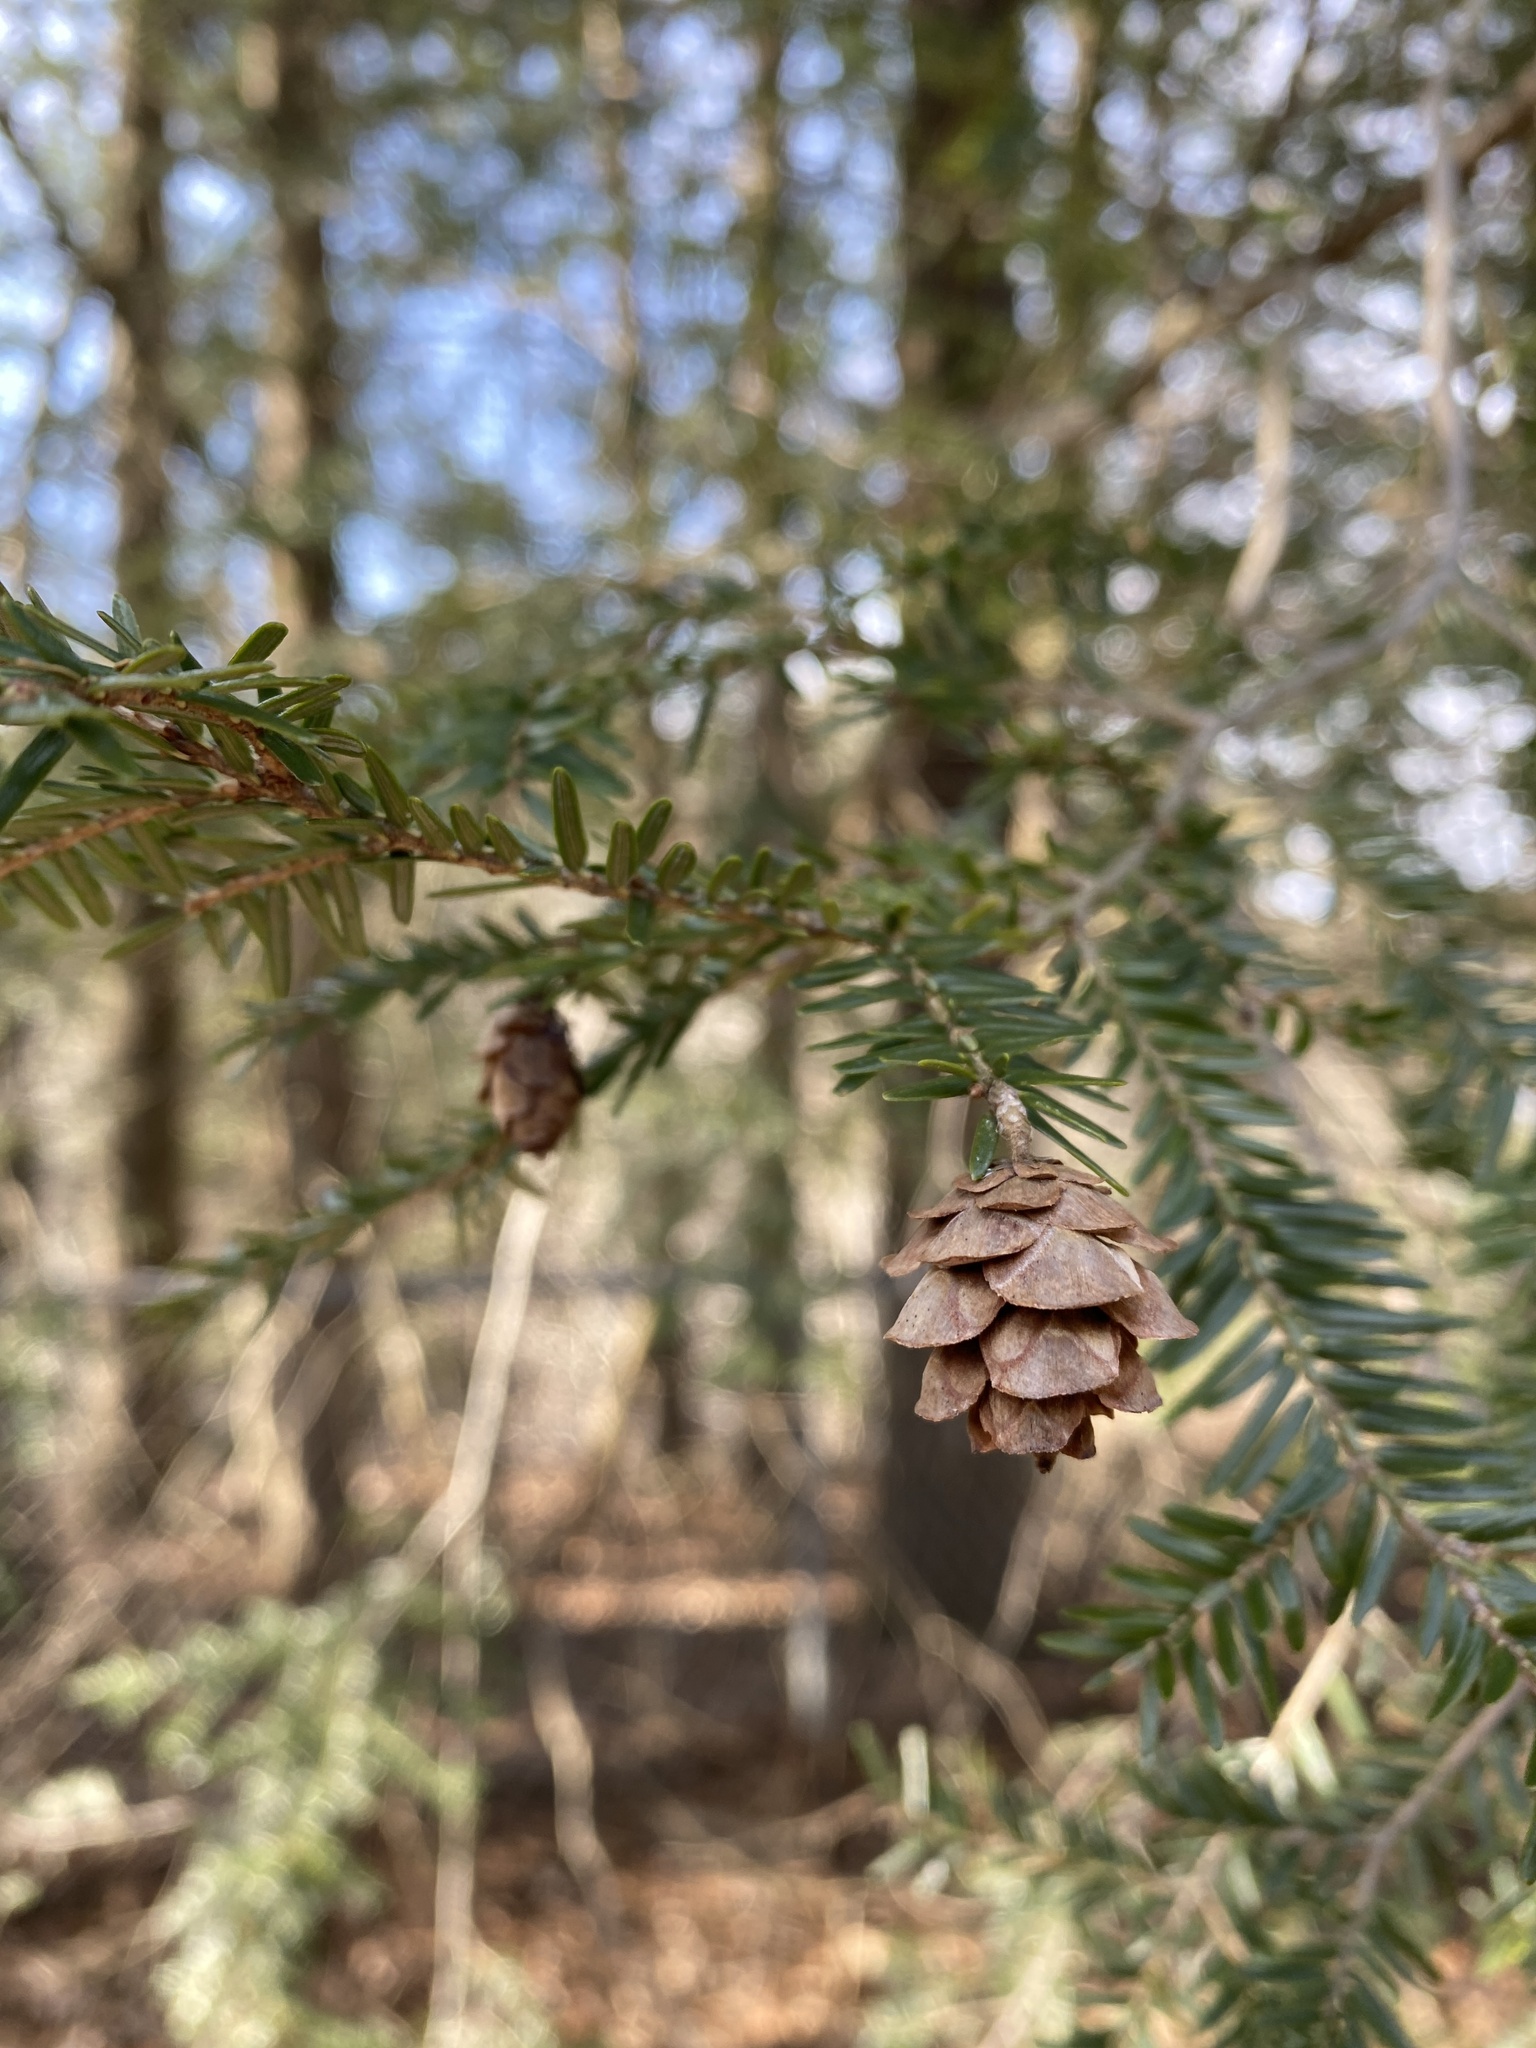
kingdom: Plantae
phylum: Tracheophyta
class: Pinopsida
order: Pinales
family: Pinaceae
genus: Tsuga
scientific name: Tsuga canadensis
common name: Eastern hemlock
